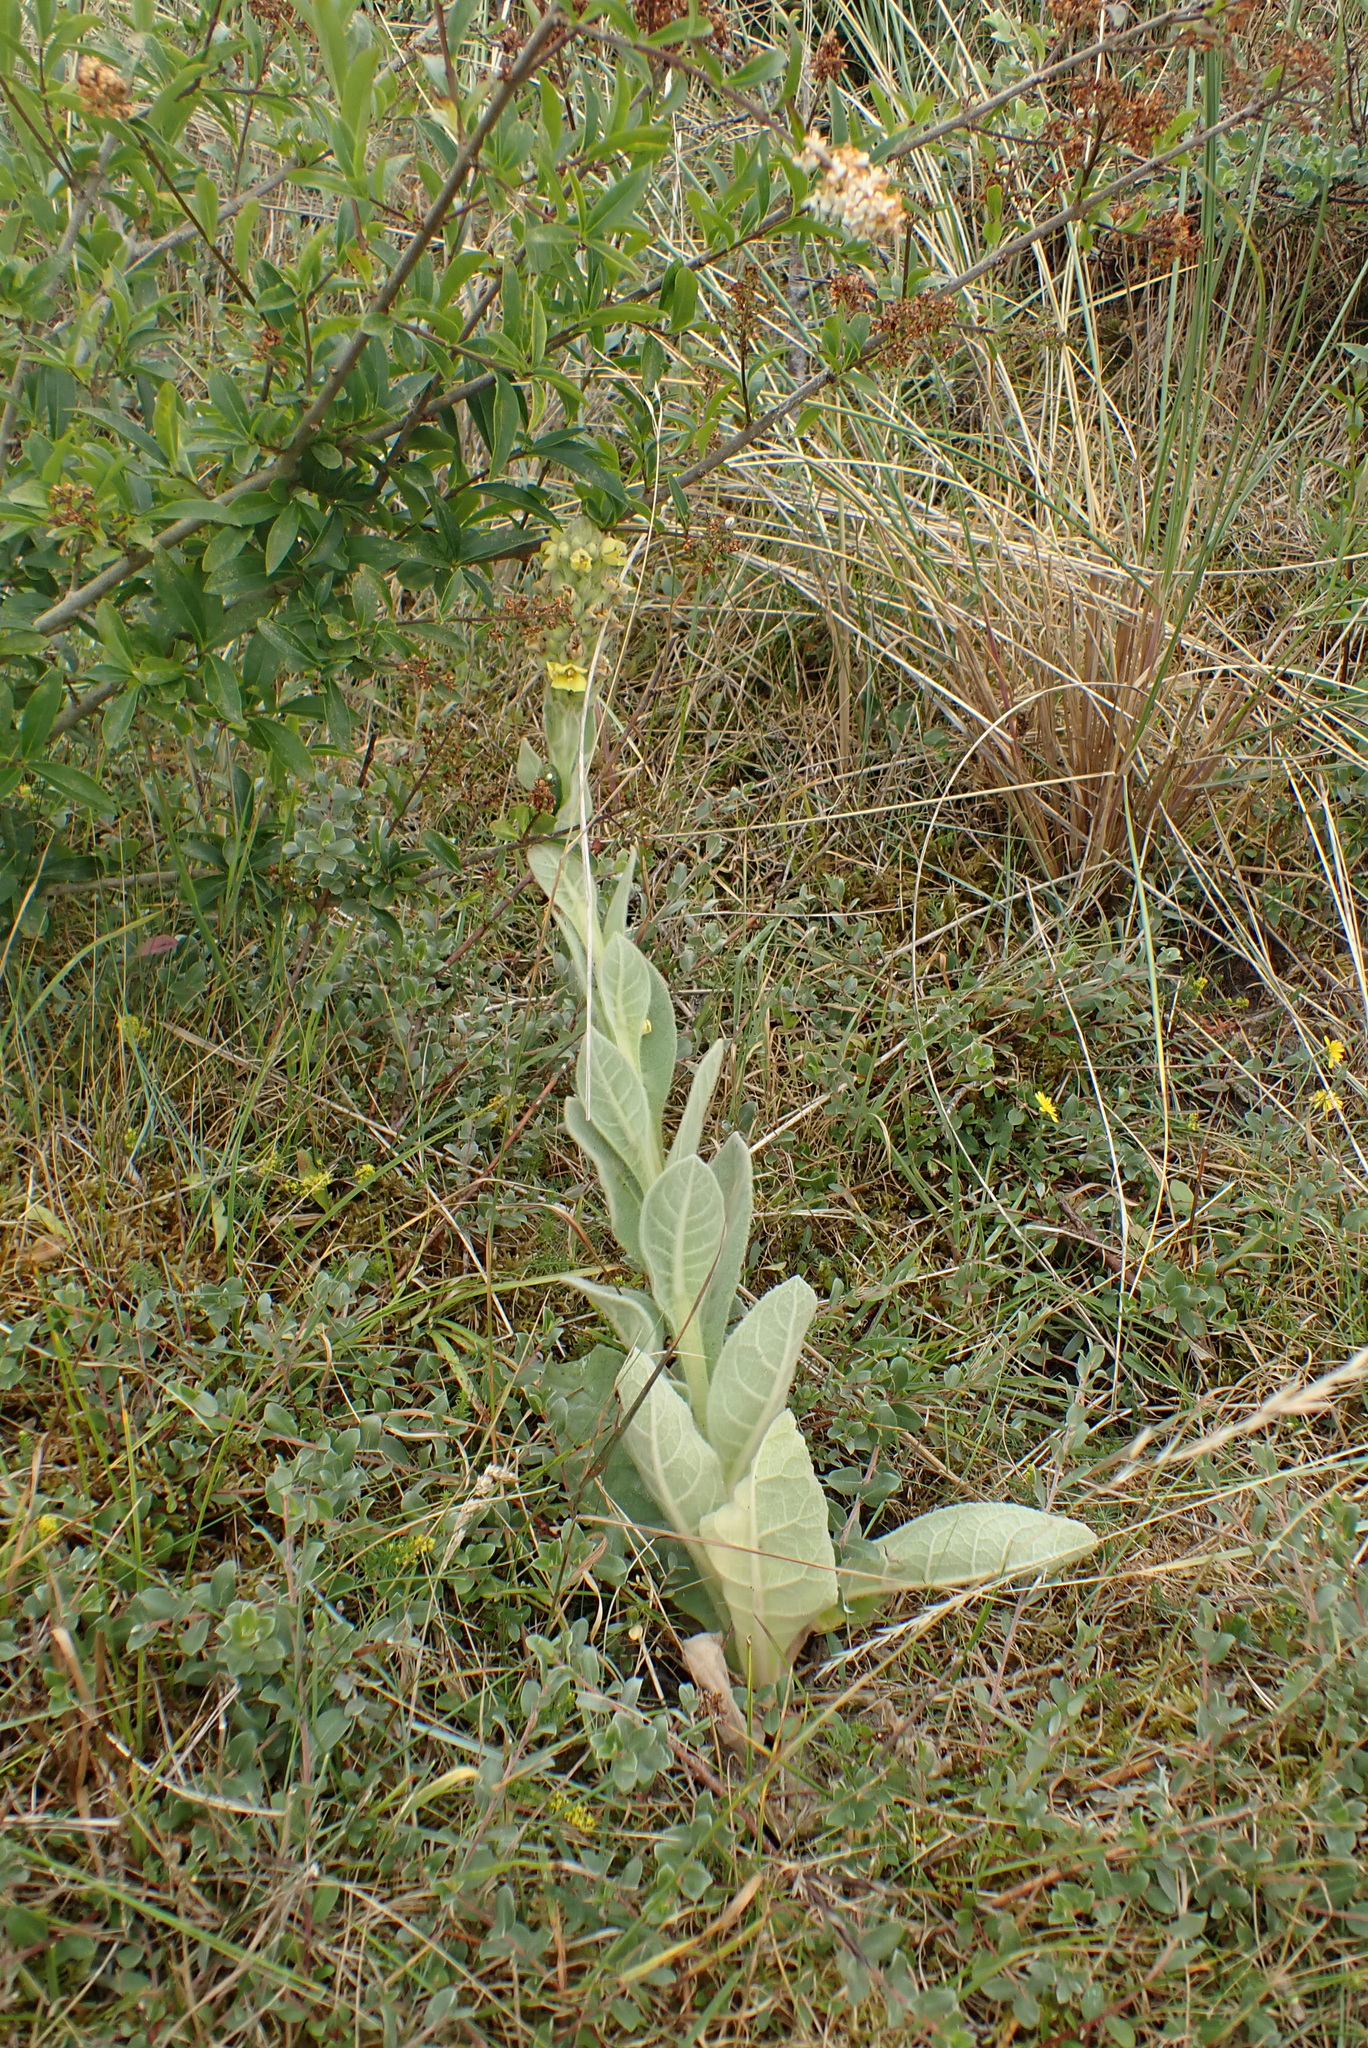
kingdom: Plantae
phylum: Tracheophyta
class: Magnoliopsida
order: Lamiales
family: Scrophulariaceae
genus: Verbascum
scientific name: Verbascum thapsus
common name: Common mullein
